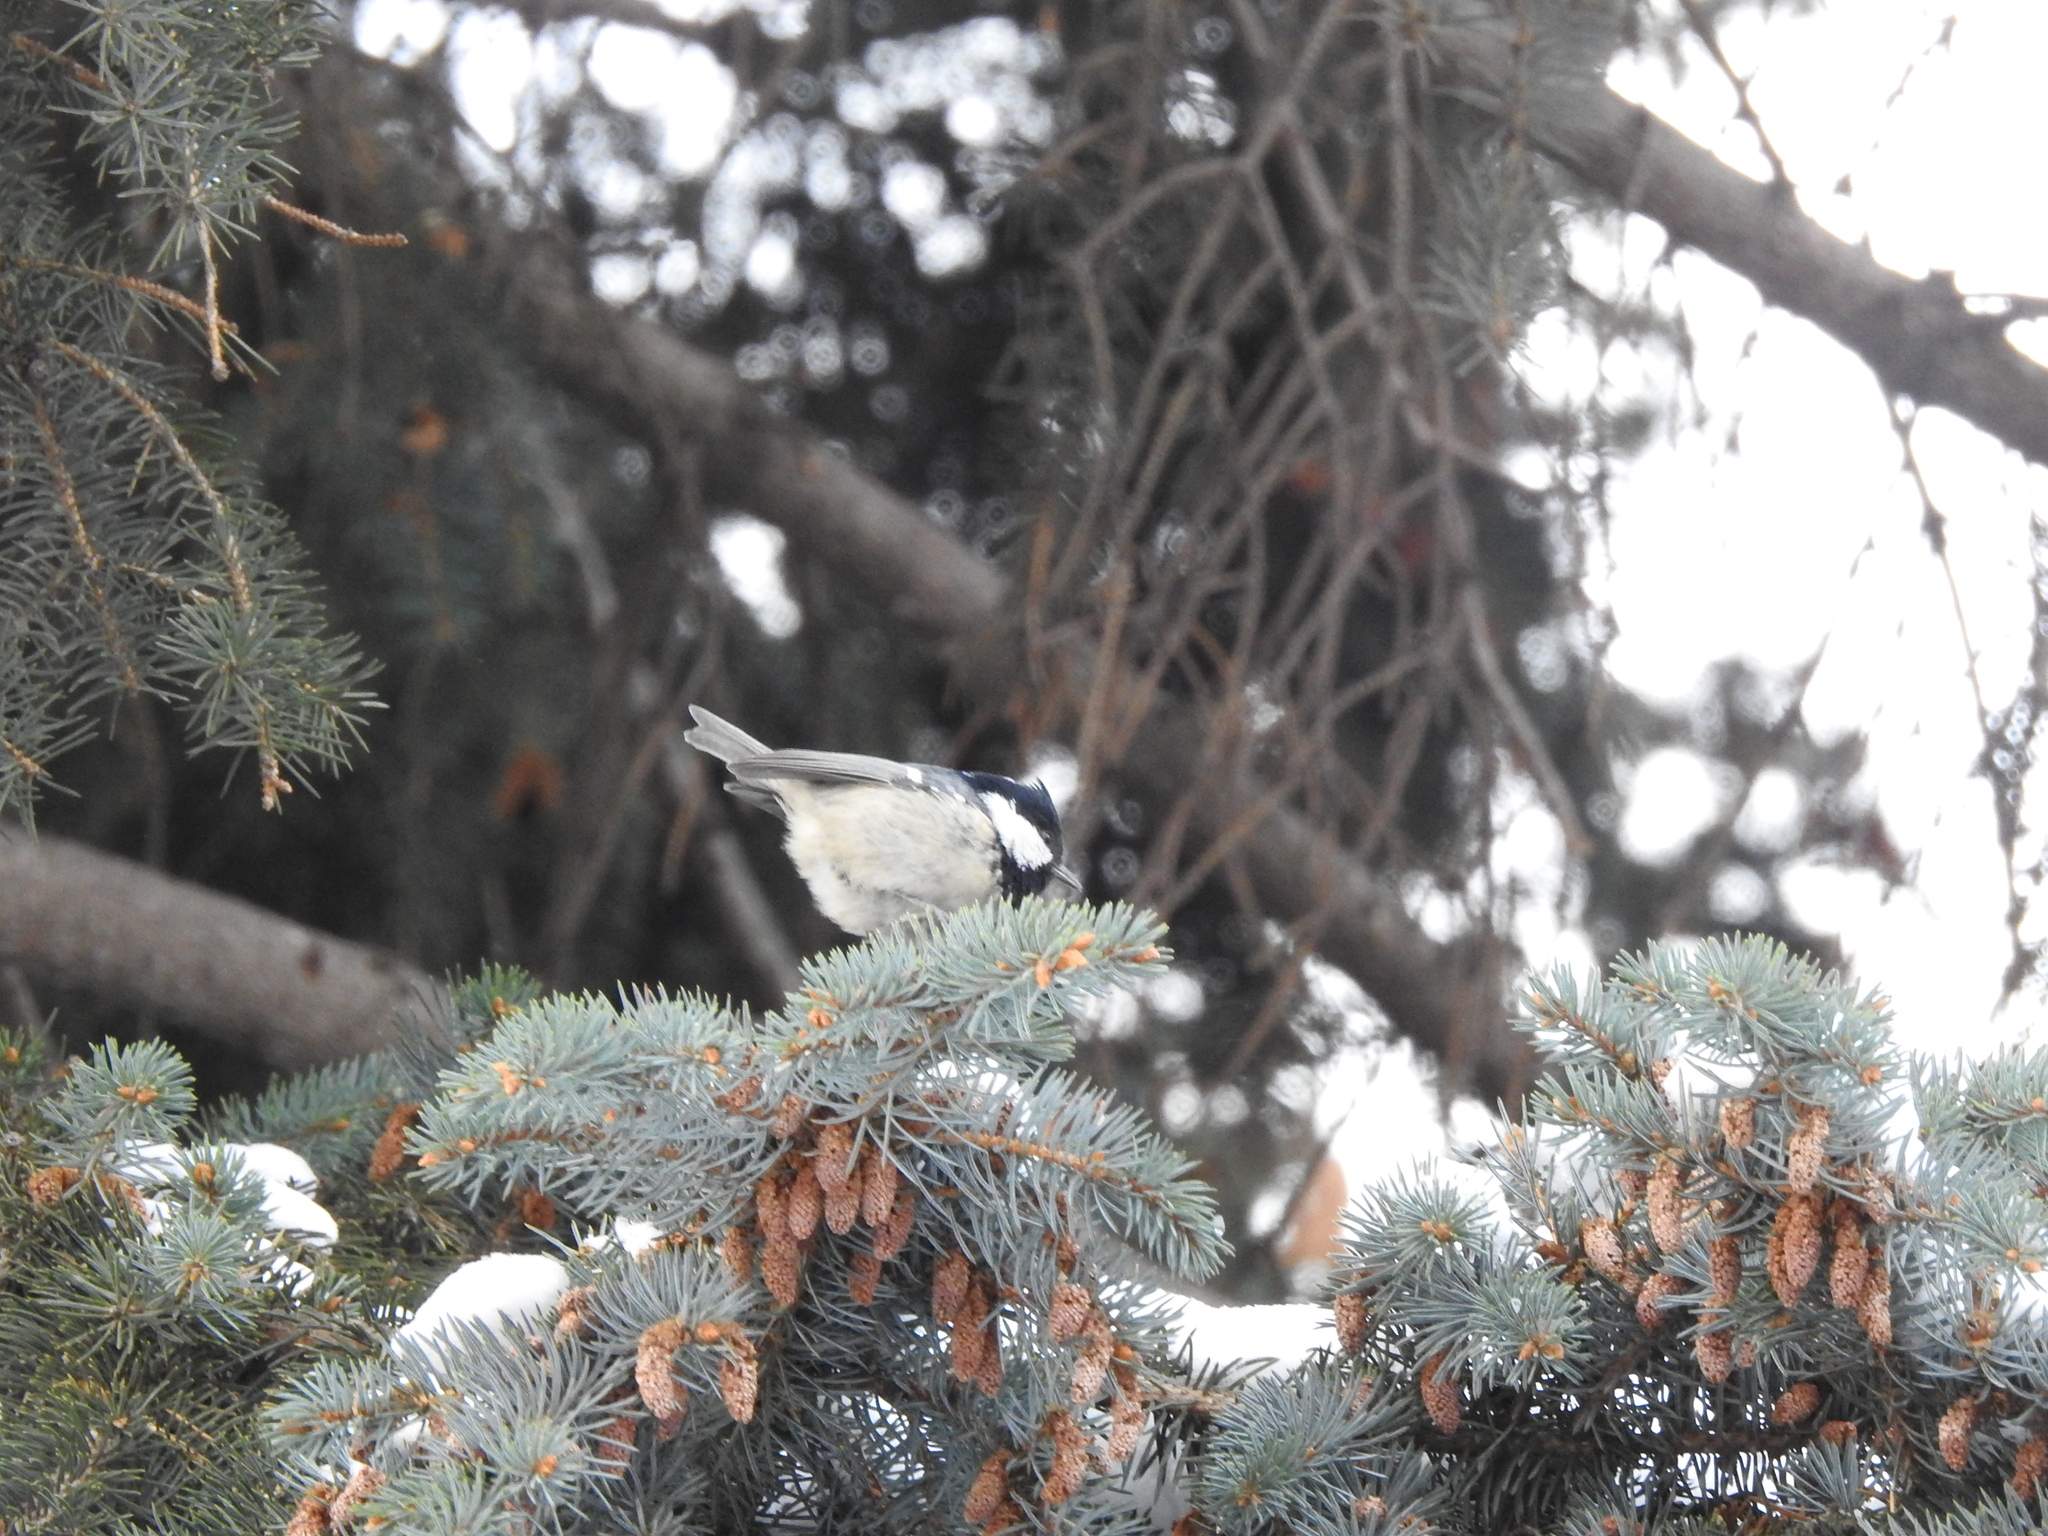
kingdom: Animalia
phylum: Chordata
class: Aves
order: Passeriformes
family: Paridae
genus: Periparus
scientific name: Periparus ater
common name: Coal tit
